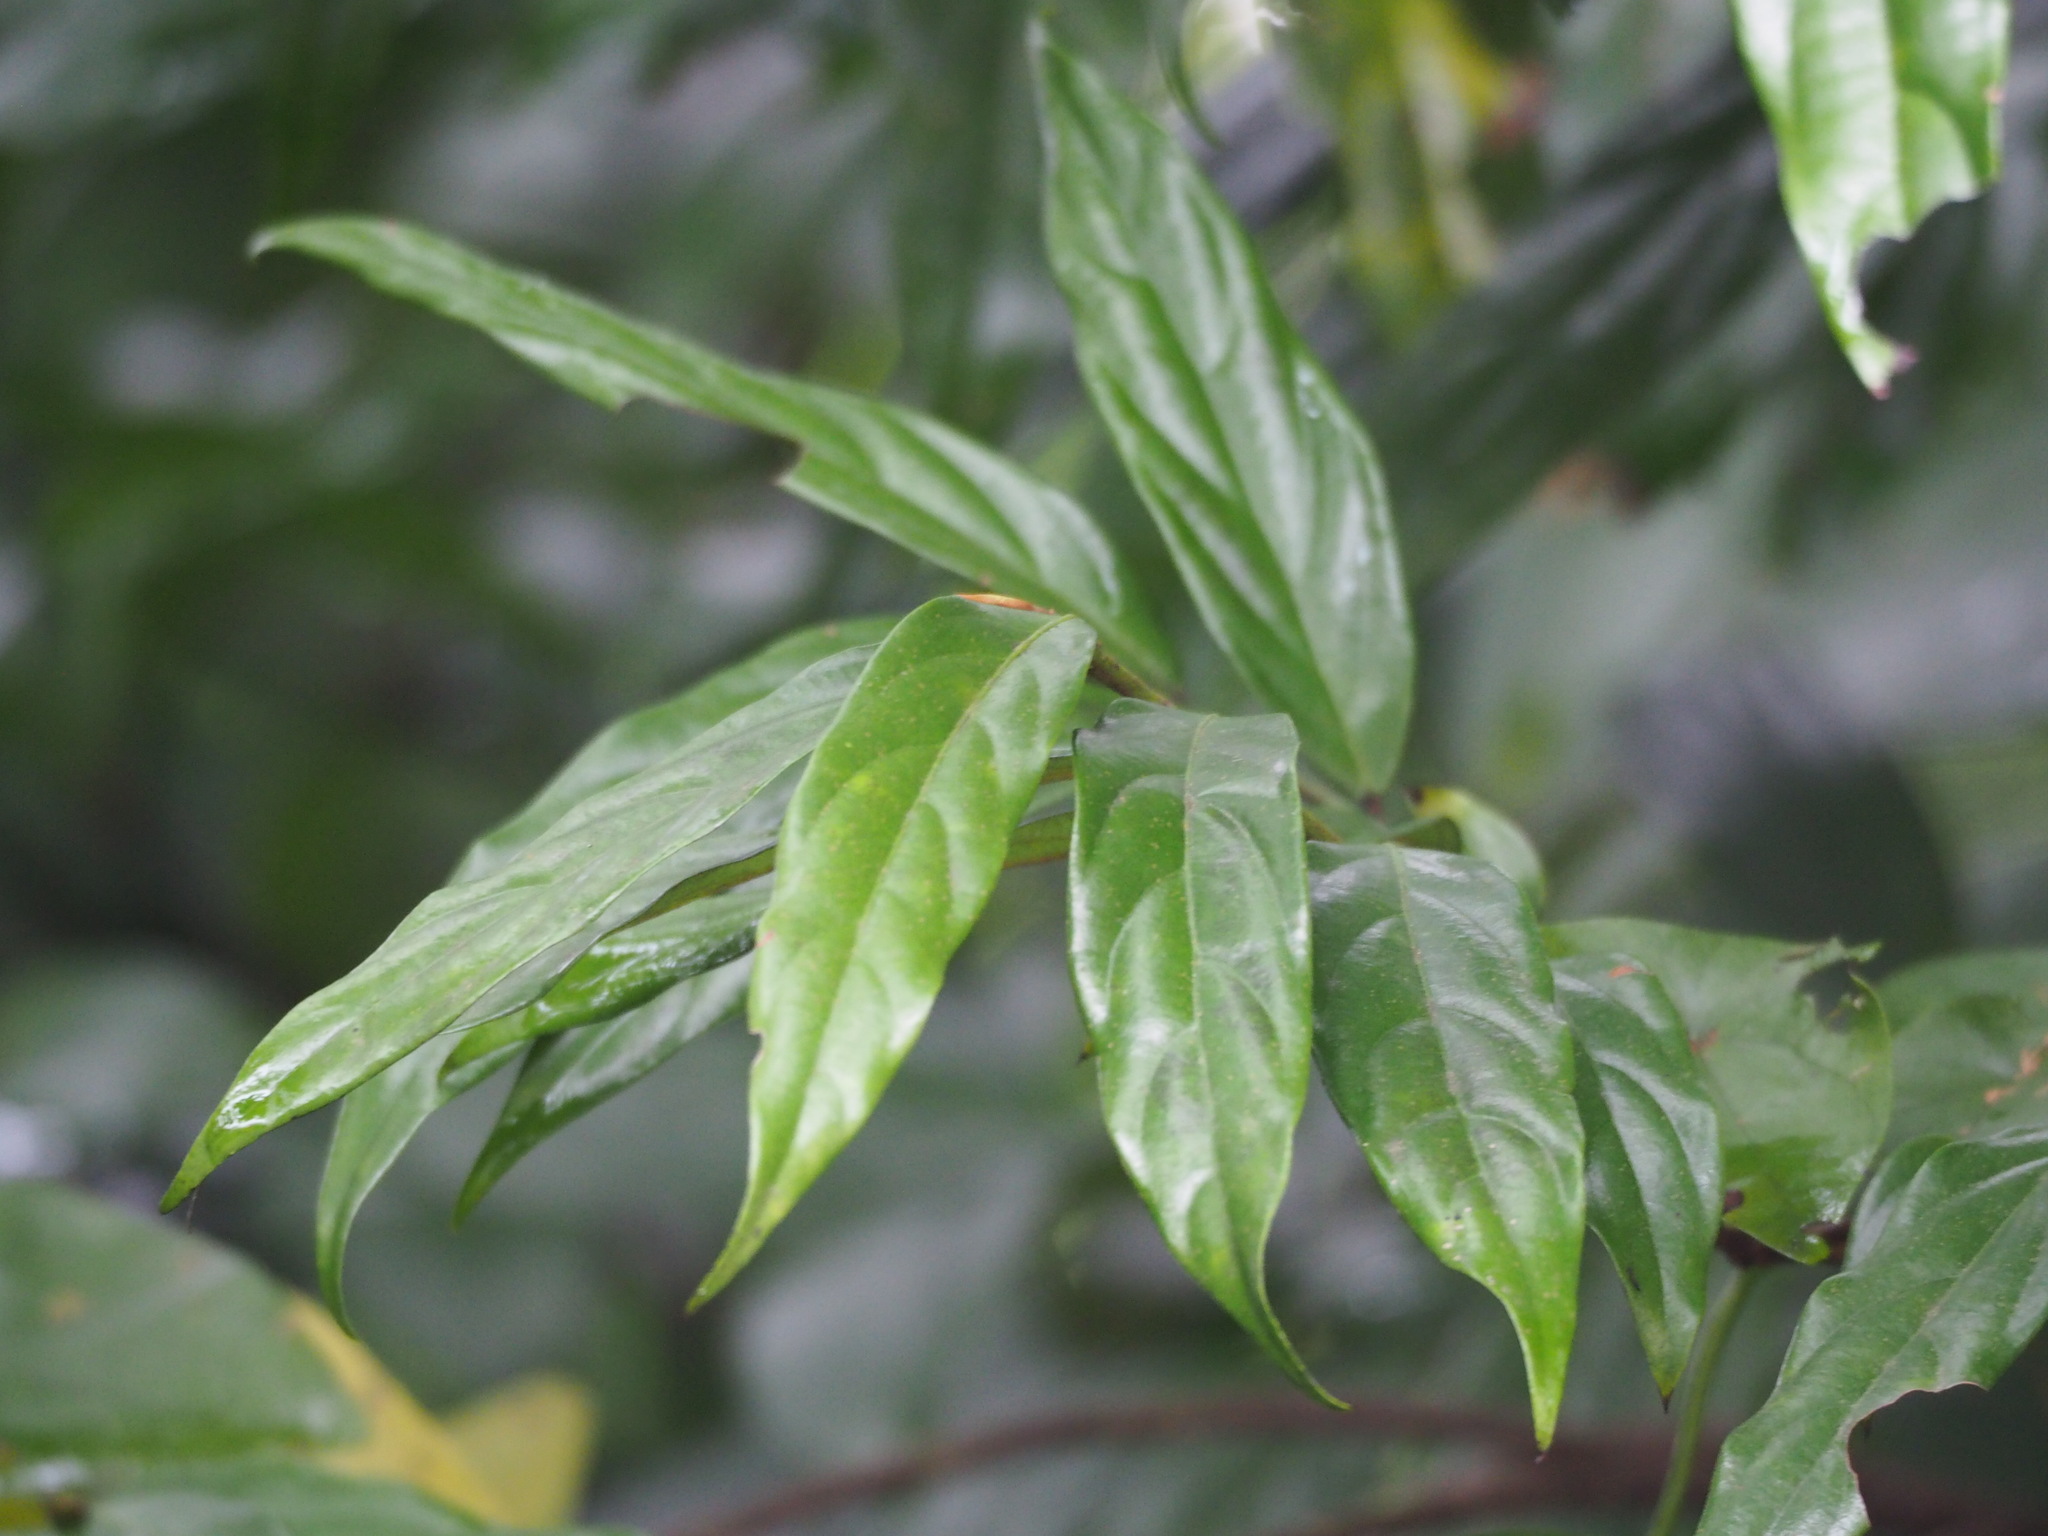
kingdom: Plantae
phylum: Tracheophyta
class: Magnoliopsida
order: Ericales
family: Ebenaceae
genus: Diospyros
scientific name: Diospyros eriantha
